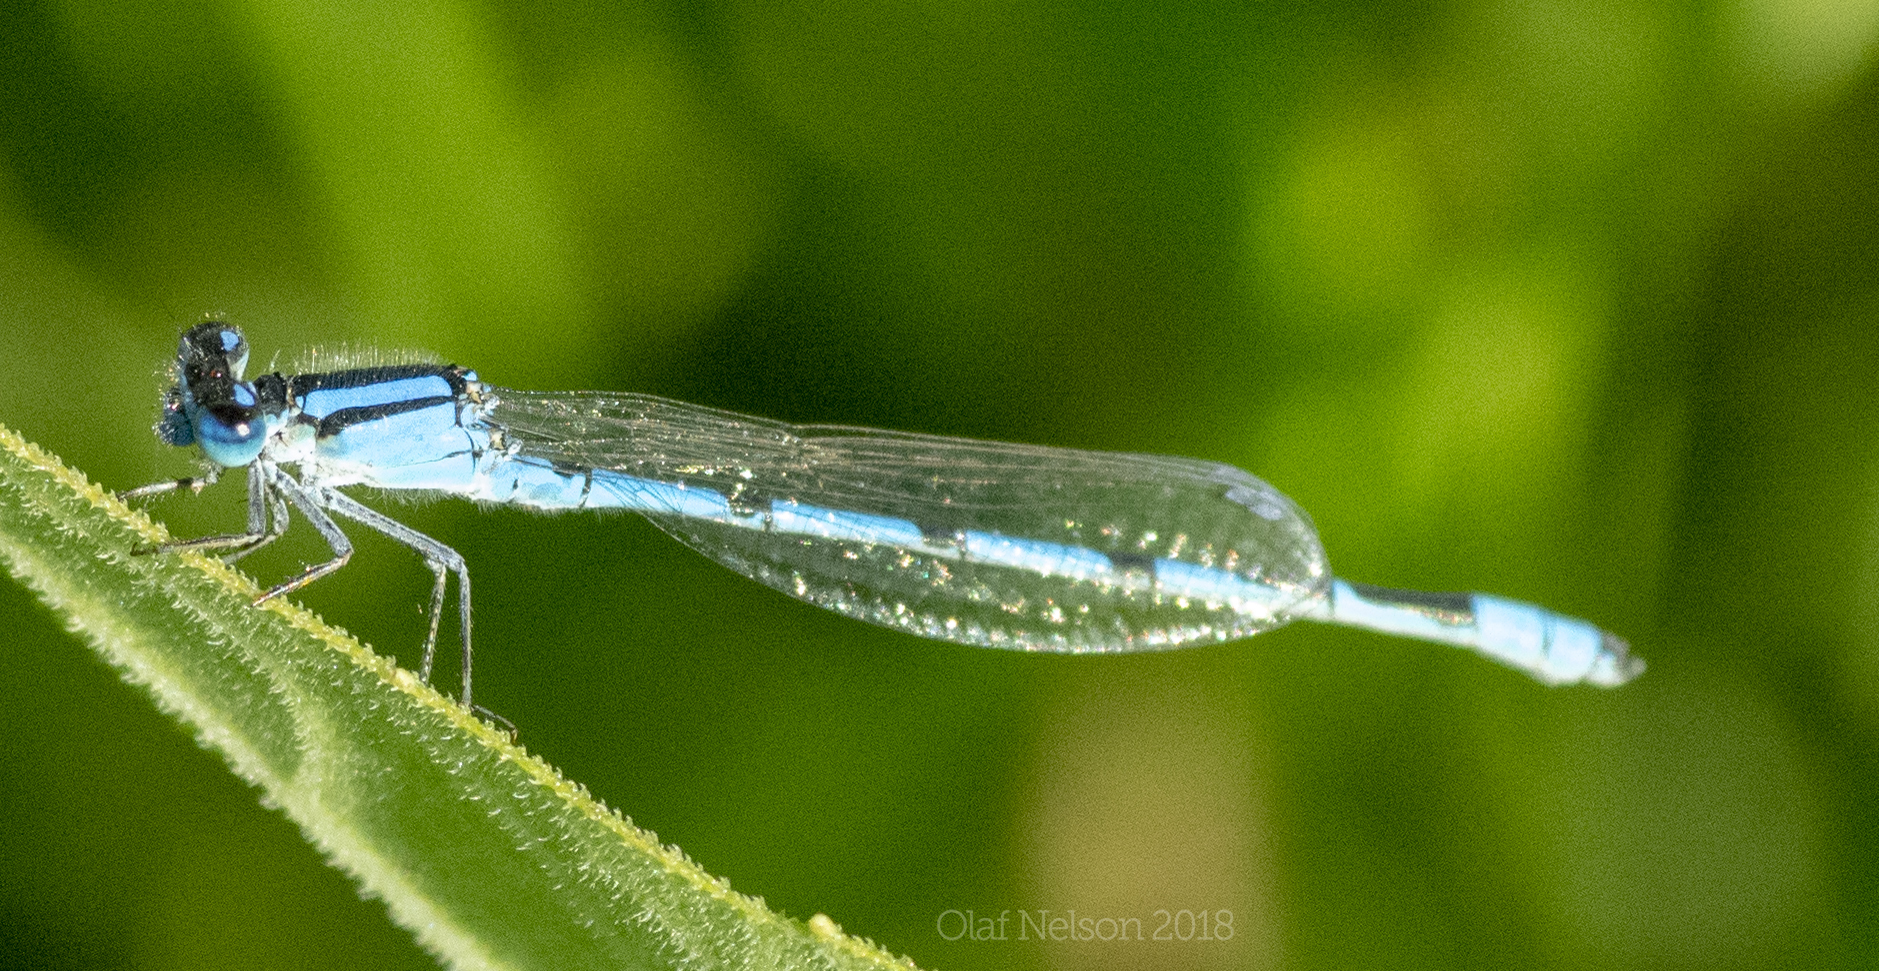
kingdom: Animalia
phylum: Arthropoda
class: Insecta
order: Odonata
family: Coenagrionidae
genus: Enallagma
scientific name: Enallagma civile
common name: Damselfly
